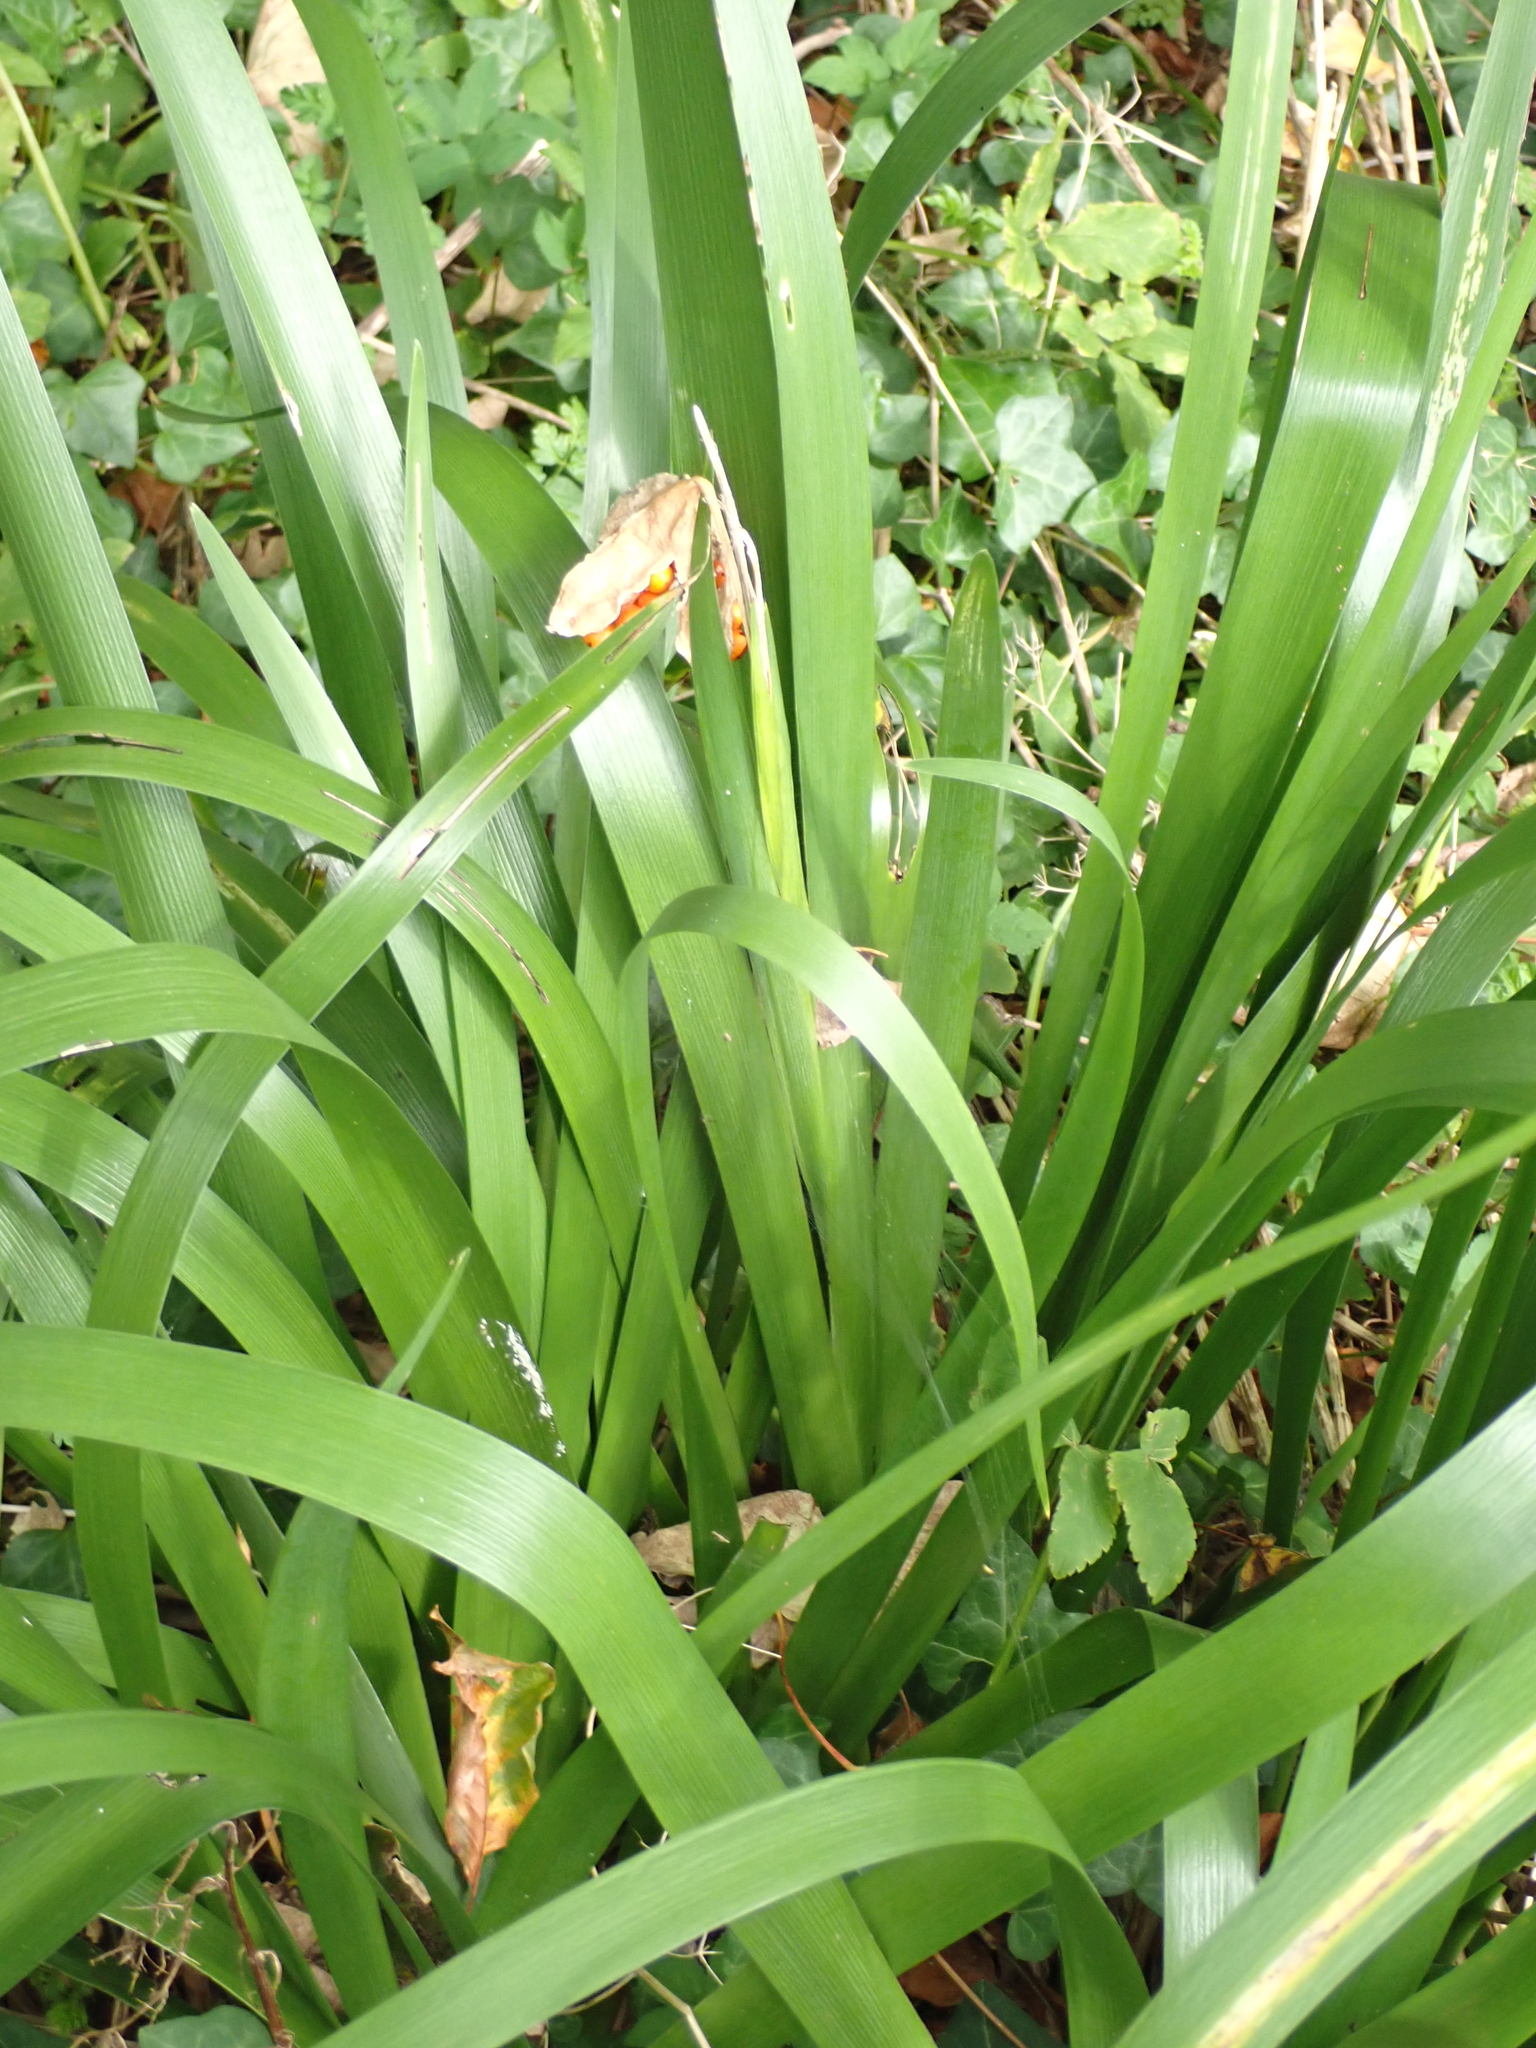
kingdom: Plantae
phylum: Tracheophyta
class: Liliopsida
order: Asparagales
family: Iridaceae
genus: Iris
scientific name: Iris foetidissima
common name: Stinking iris
